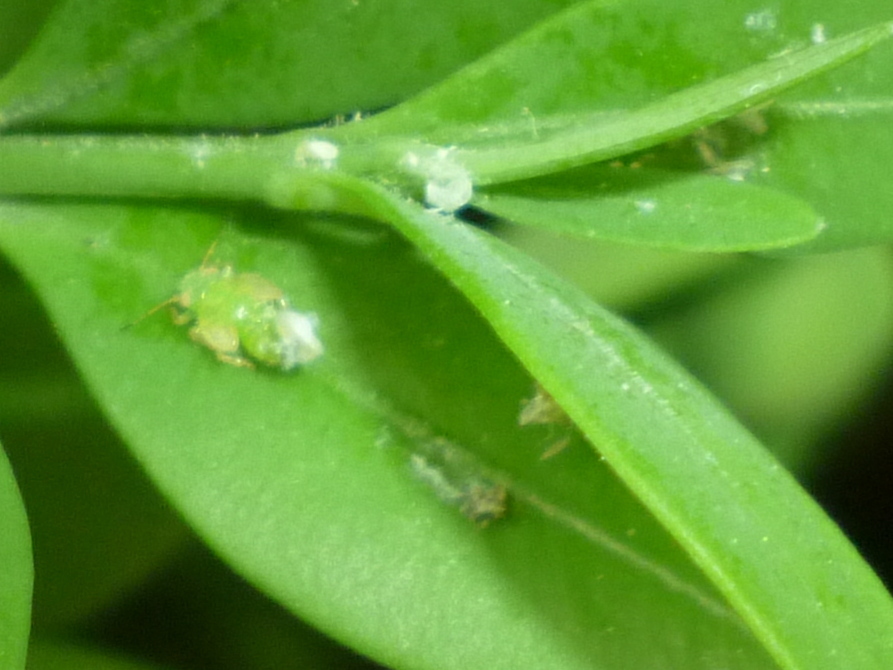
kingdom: Animalia
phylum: Arthropoda
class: Insecta
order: Hemiptera
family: Psyllidae
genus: Psylla
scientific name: Psylla buxi
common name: Boxwood psyllid
